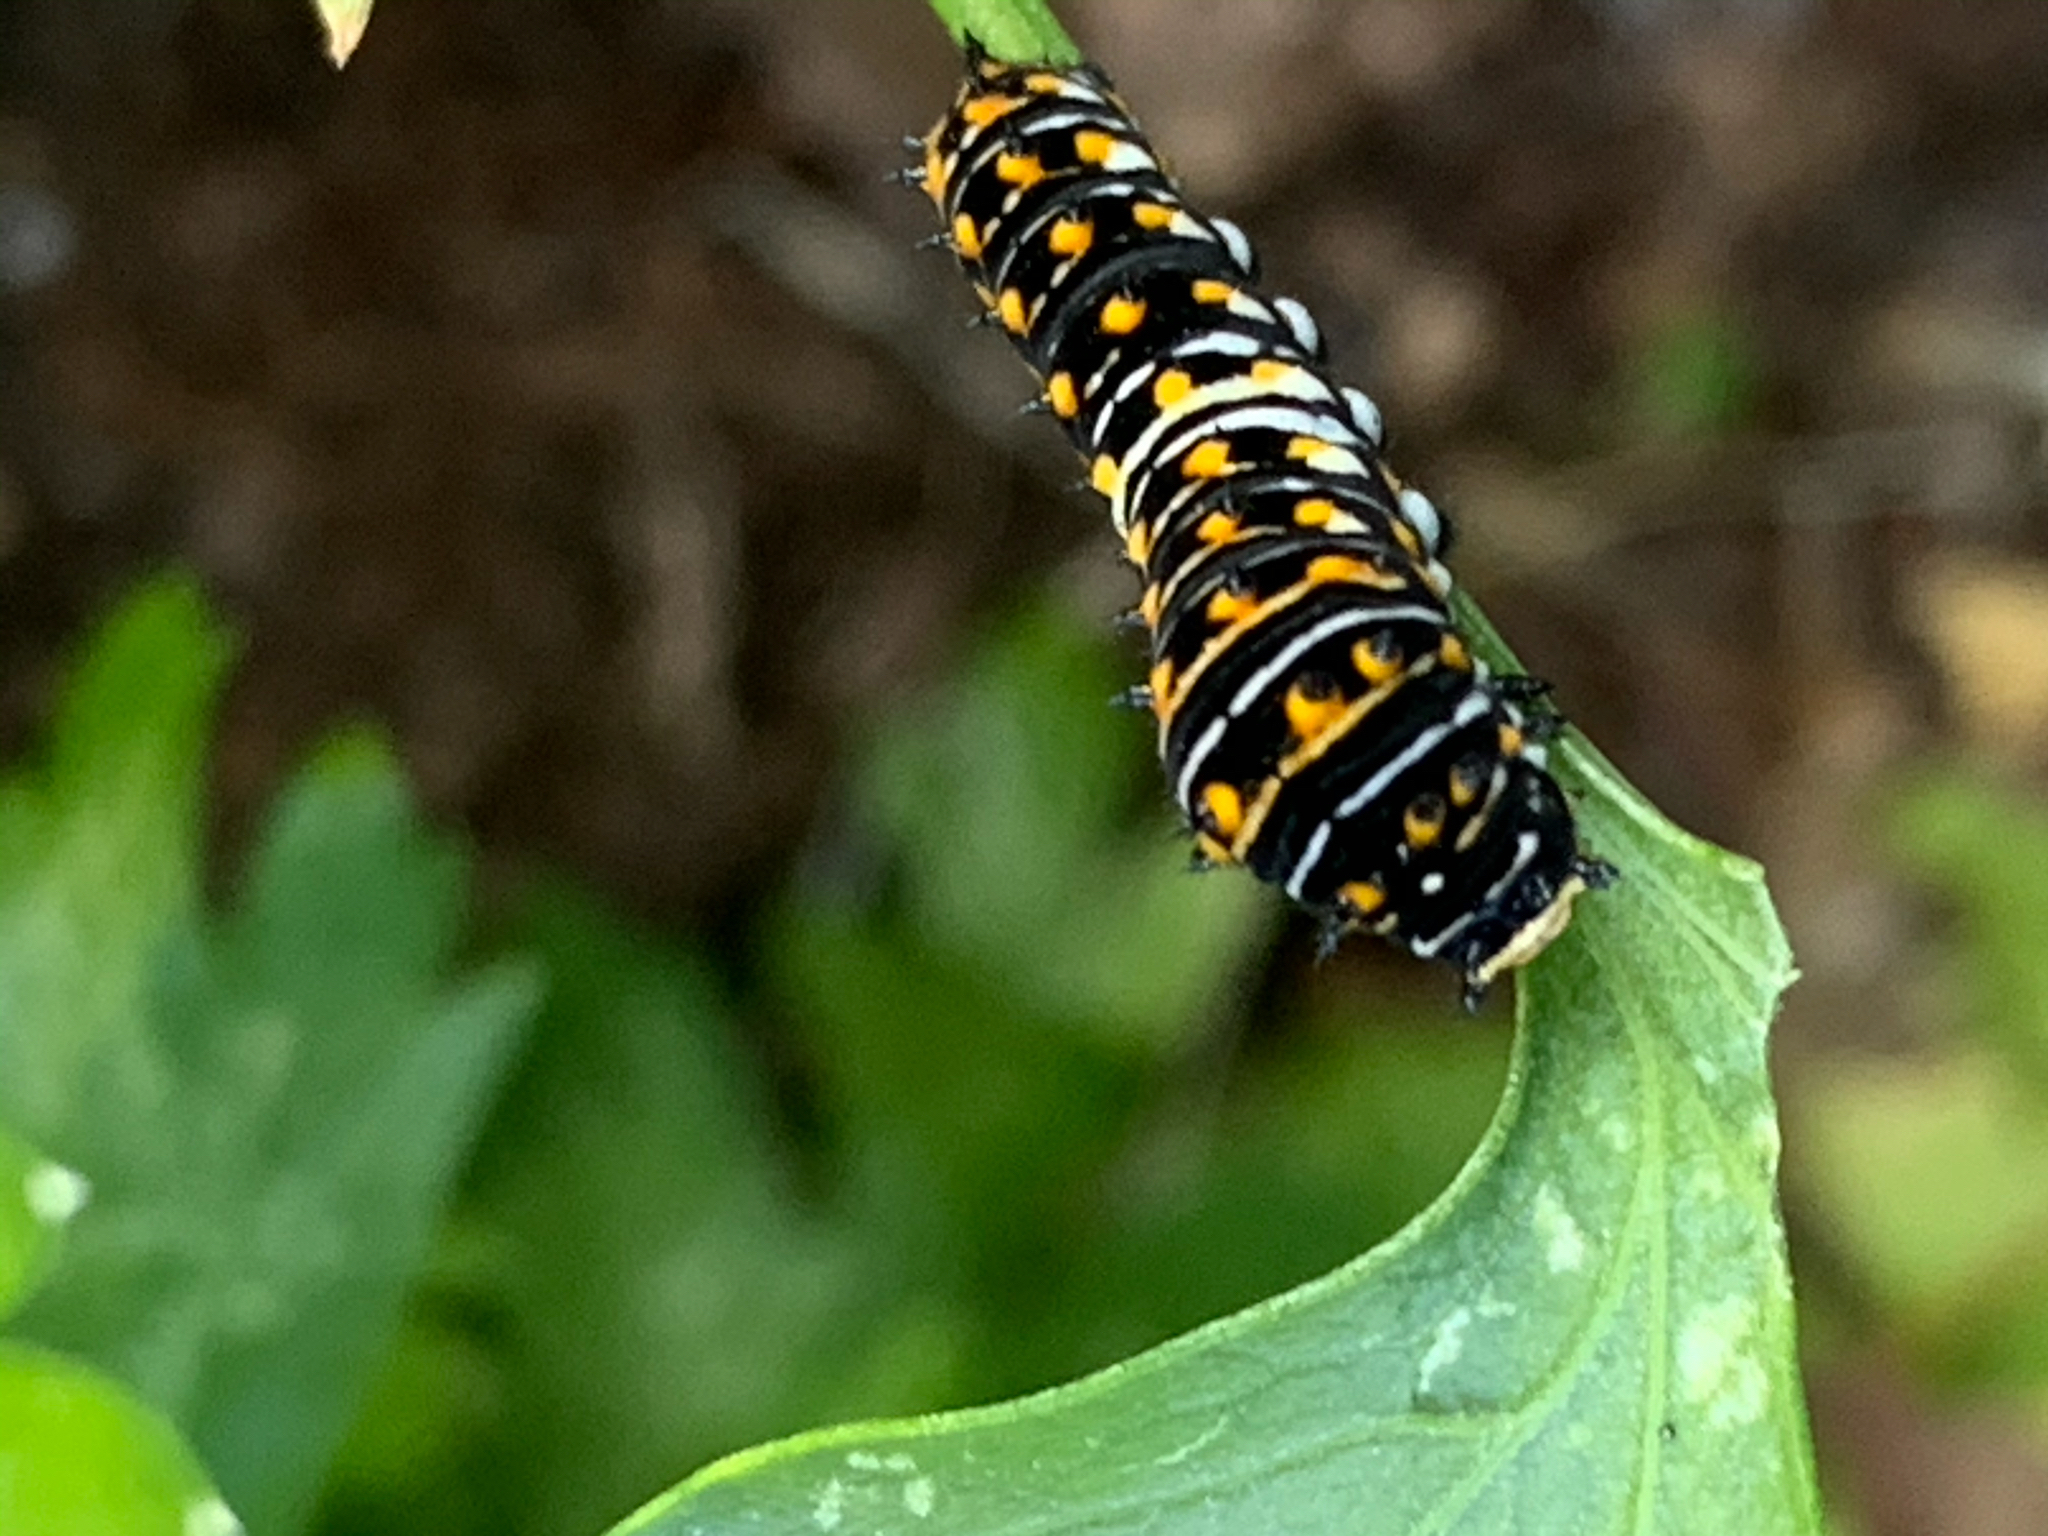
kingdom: Animalia
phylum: Arthropoda
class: Insecta
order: Lepidoptera
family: Papilionidae
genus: Papilio
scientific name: Papilio polyxenes
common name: Black swallowtail
